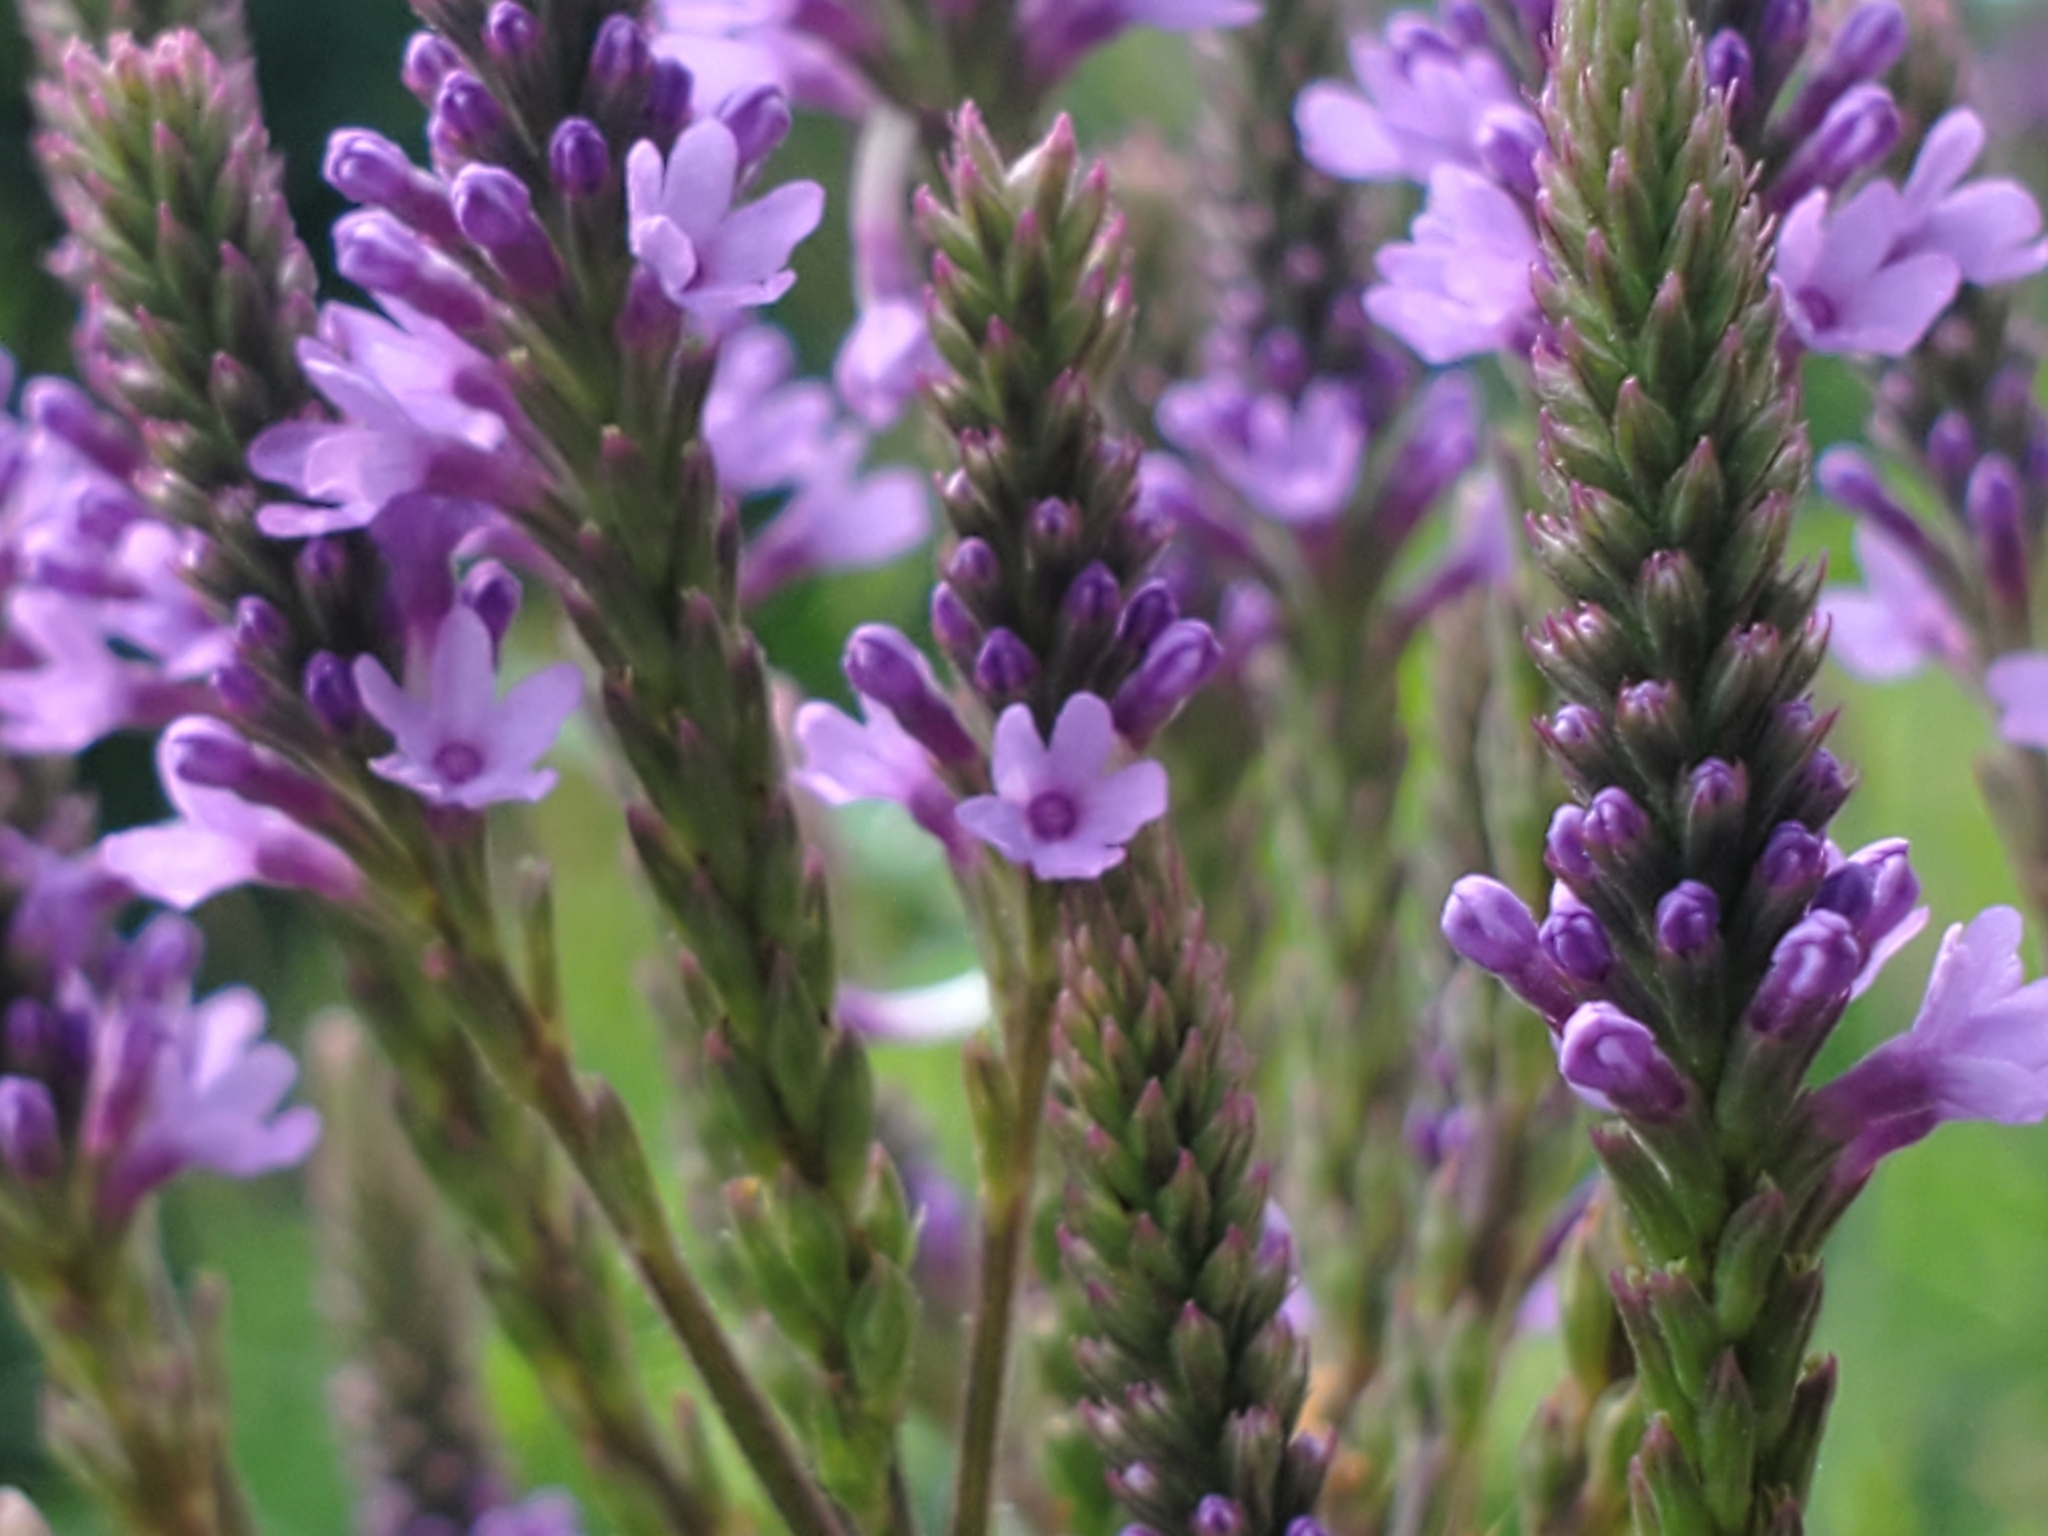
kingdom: Plantae
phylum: Tracheophyta
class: Magnoliopsida
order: Lamiales
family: Verbenaceae
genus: Verbena
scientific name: Verbena hastata
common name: American blue vervain
